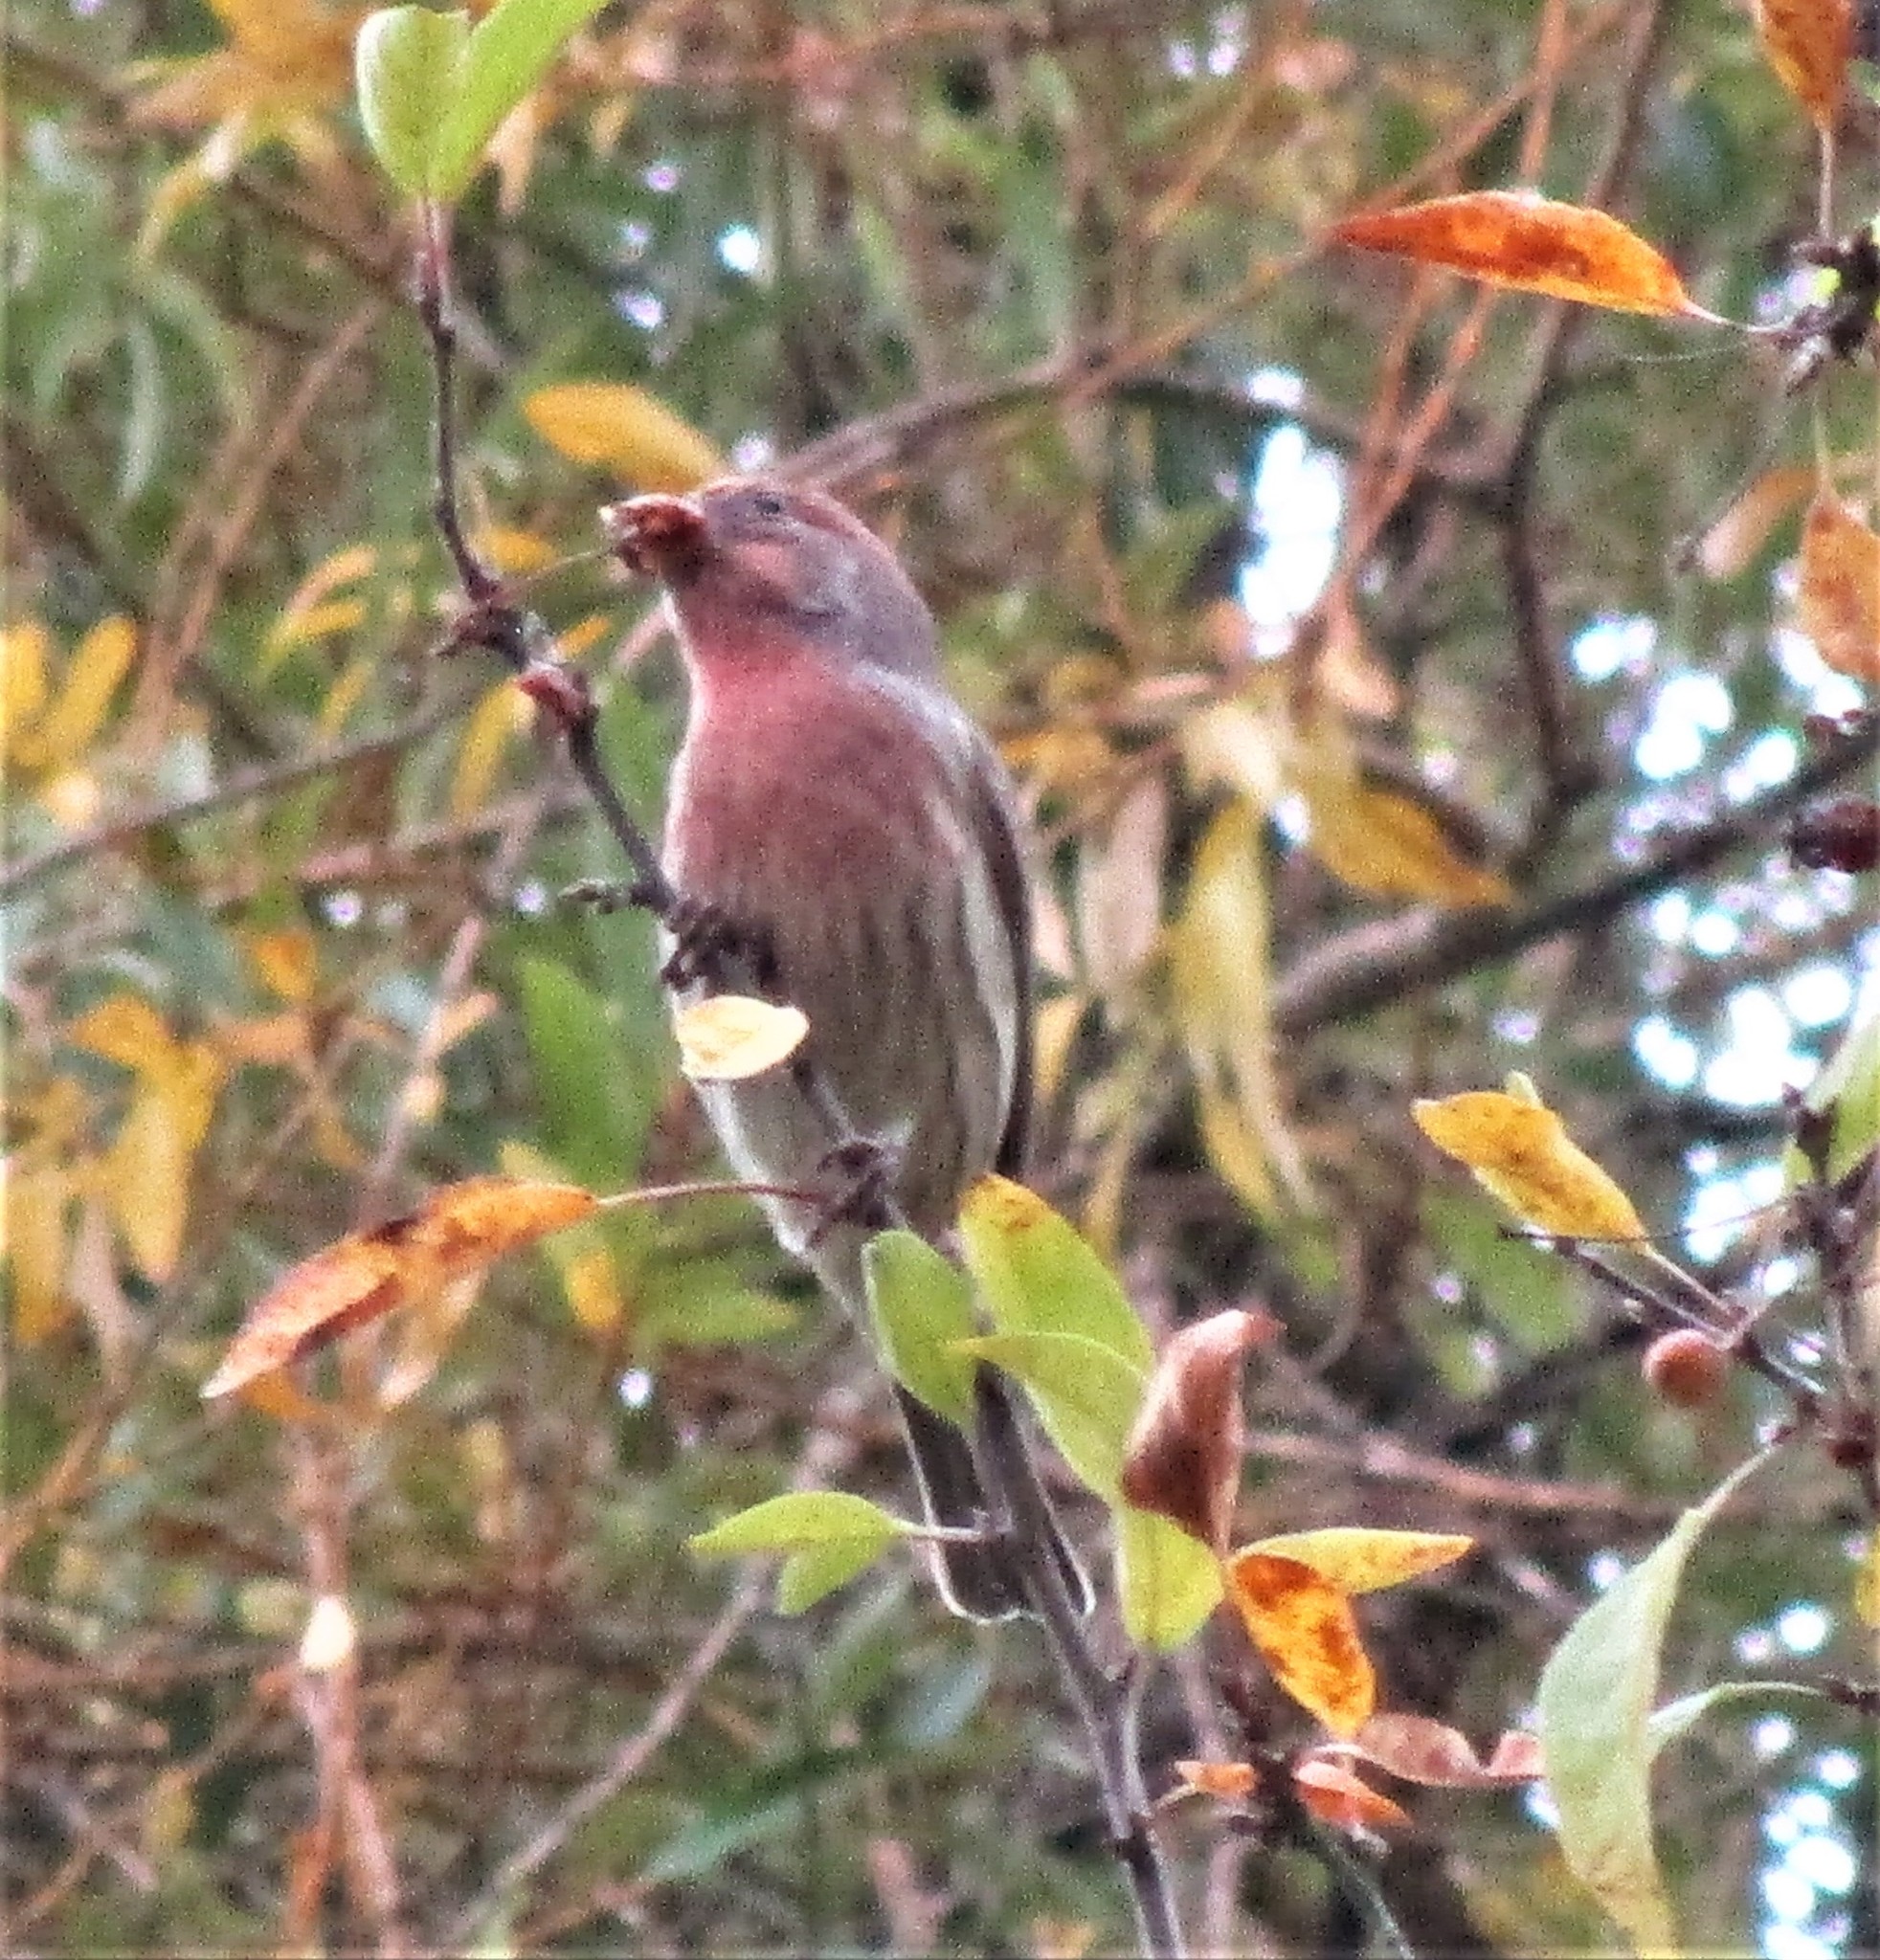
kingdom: Animalia
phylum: Chordata
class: Aves
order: Passeriformes
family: Fringillidae
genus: Haemorhous
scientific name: Haemorhous mexicanus
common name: House finch
